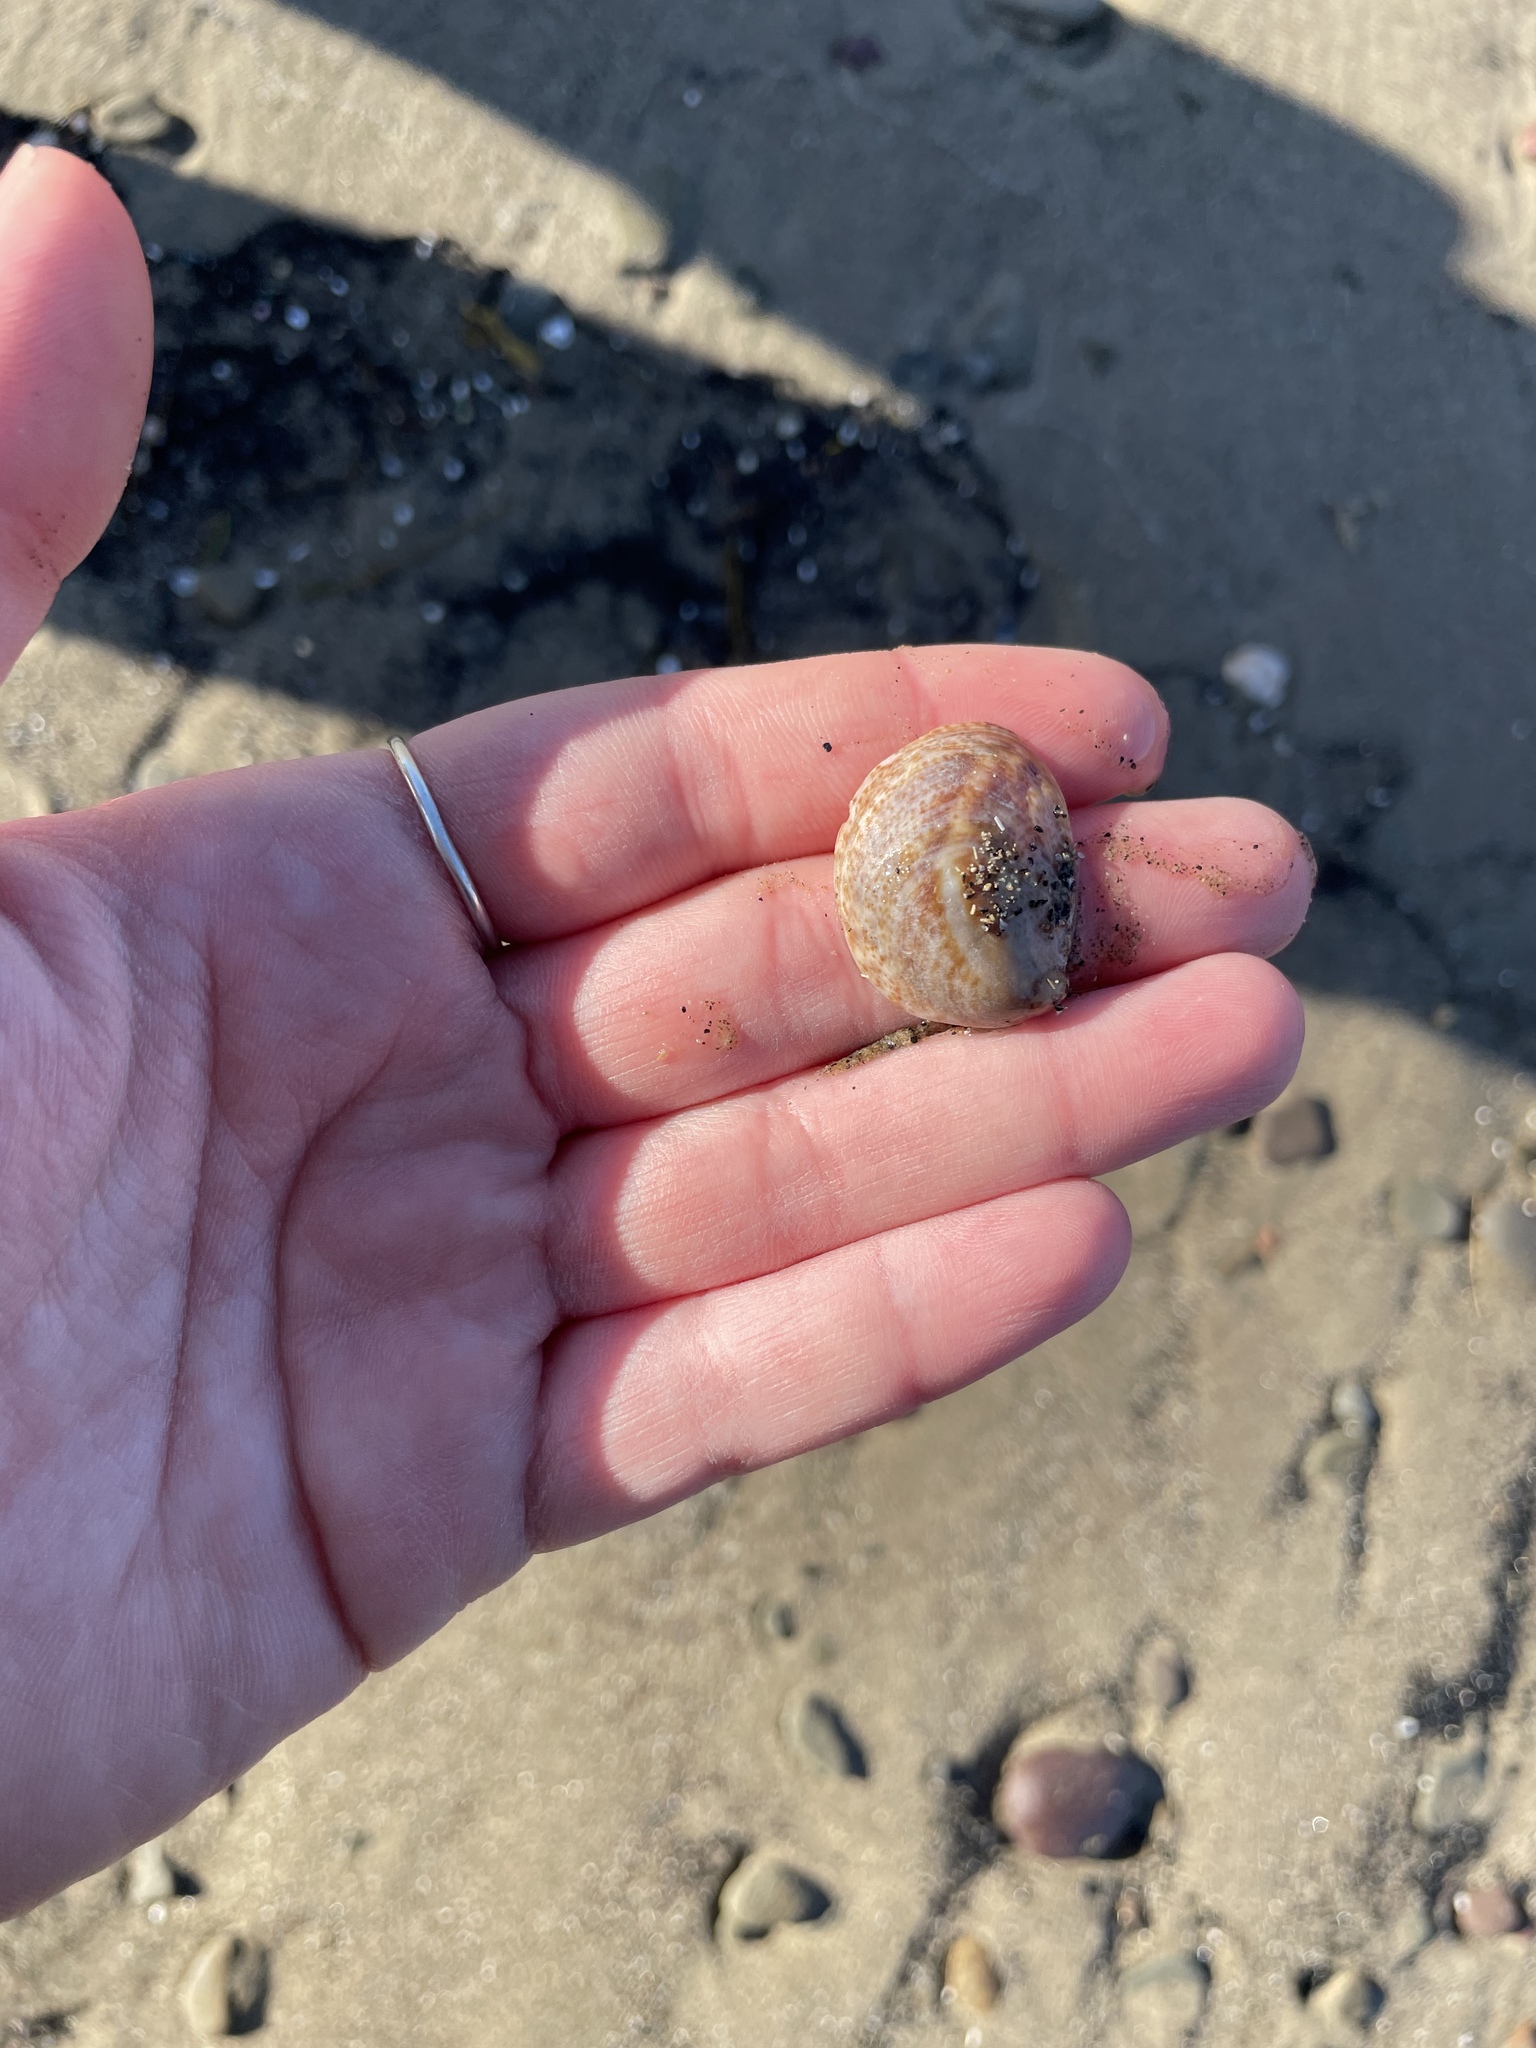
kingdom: Animalia
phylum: Mollusca
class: Gastropoda
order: Littorinimorpha
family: Calyptraeidae
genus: Crepidula
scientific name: Crepidula fornicata
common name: Slipper limpet
